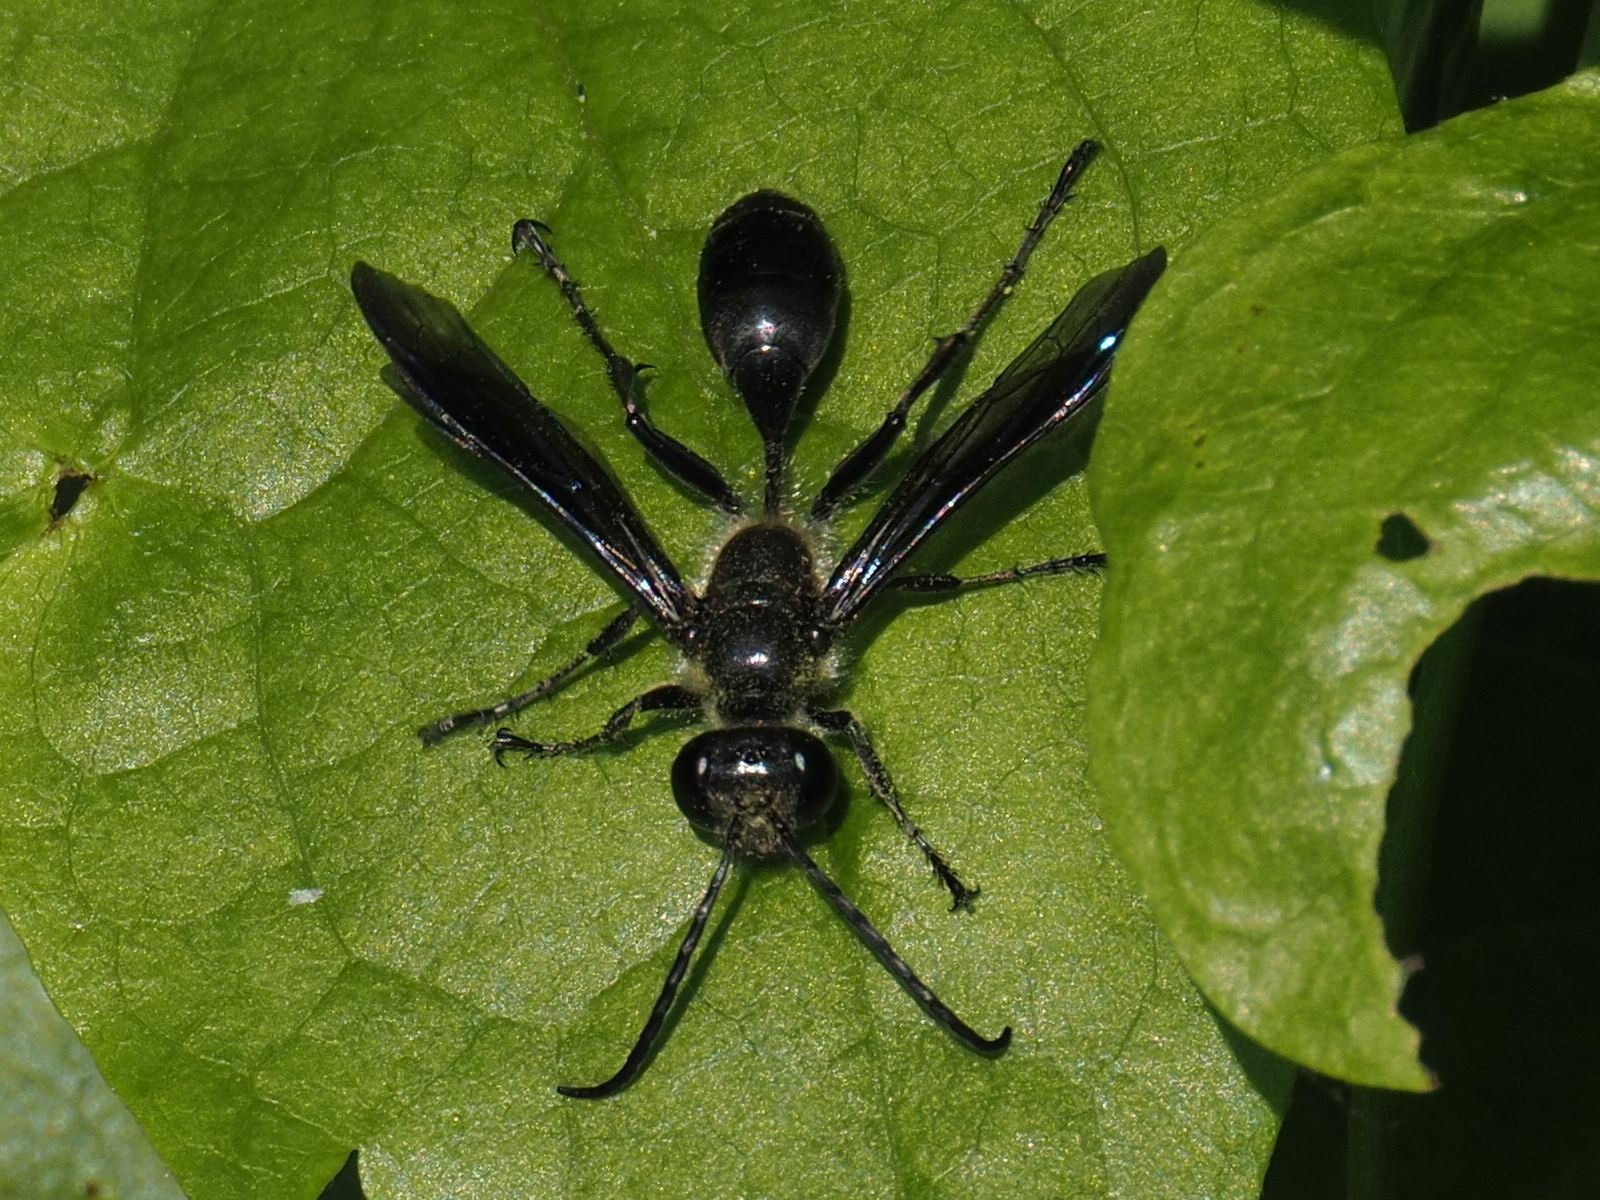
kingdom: Animalia
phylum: Arthropoda
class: Insecta
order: Hymenoptera
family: Sphecidae
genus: Isodontia
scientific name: Isodontia mexicana
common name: Mud dauber
